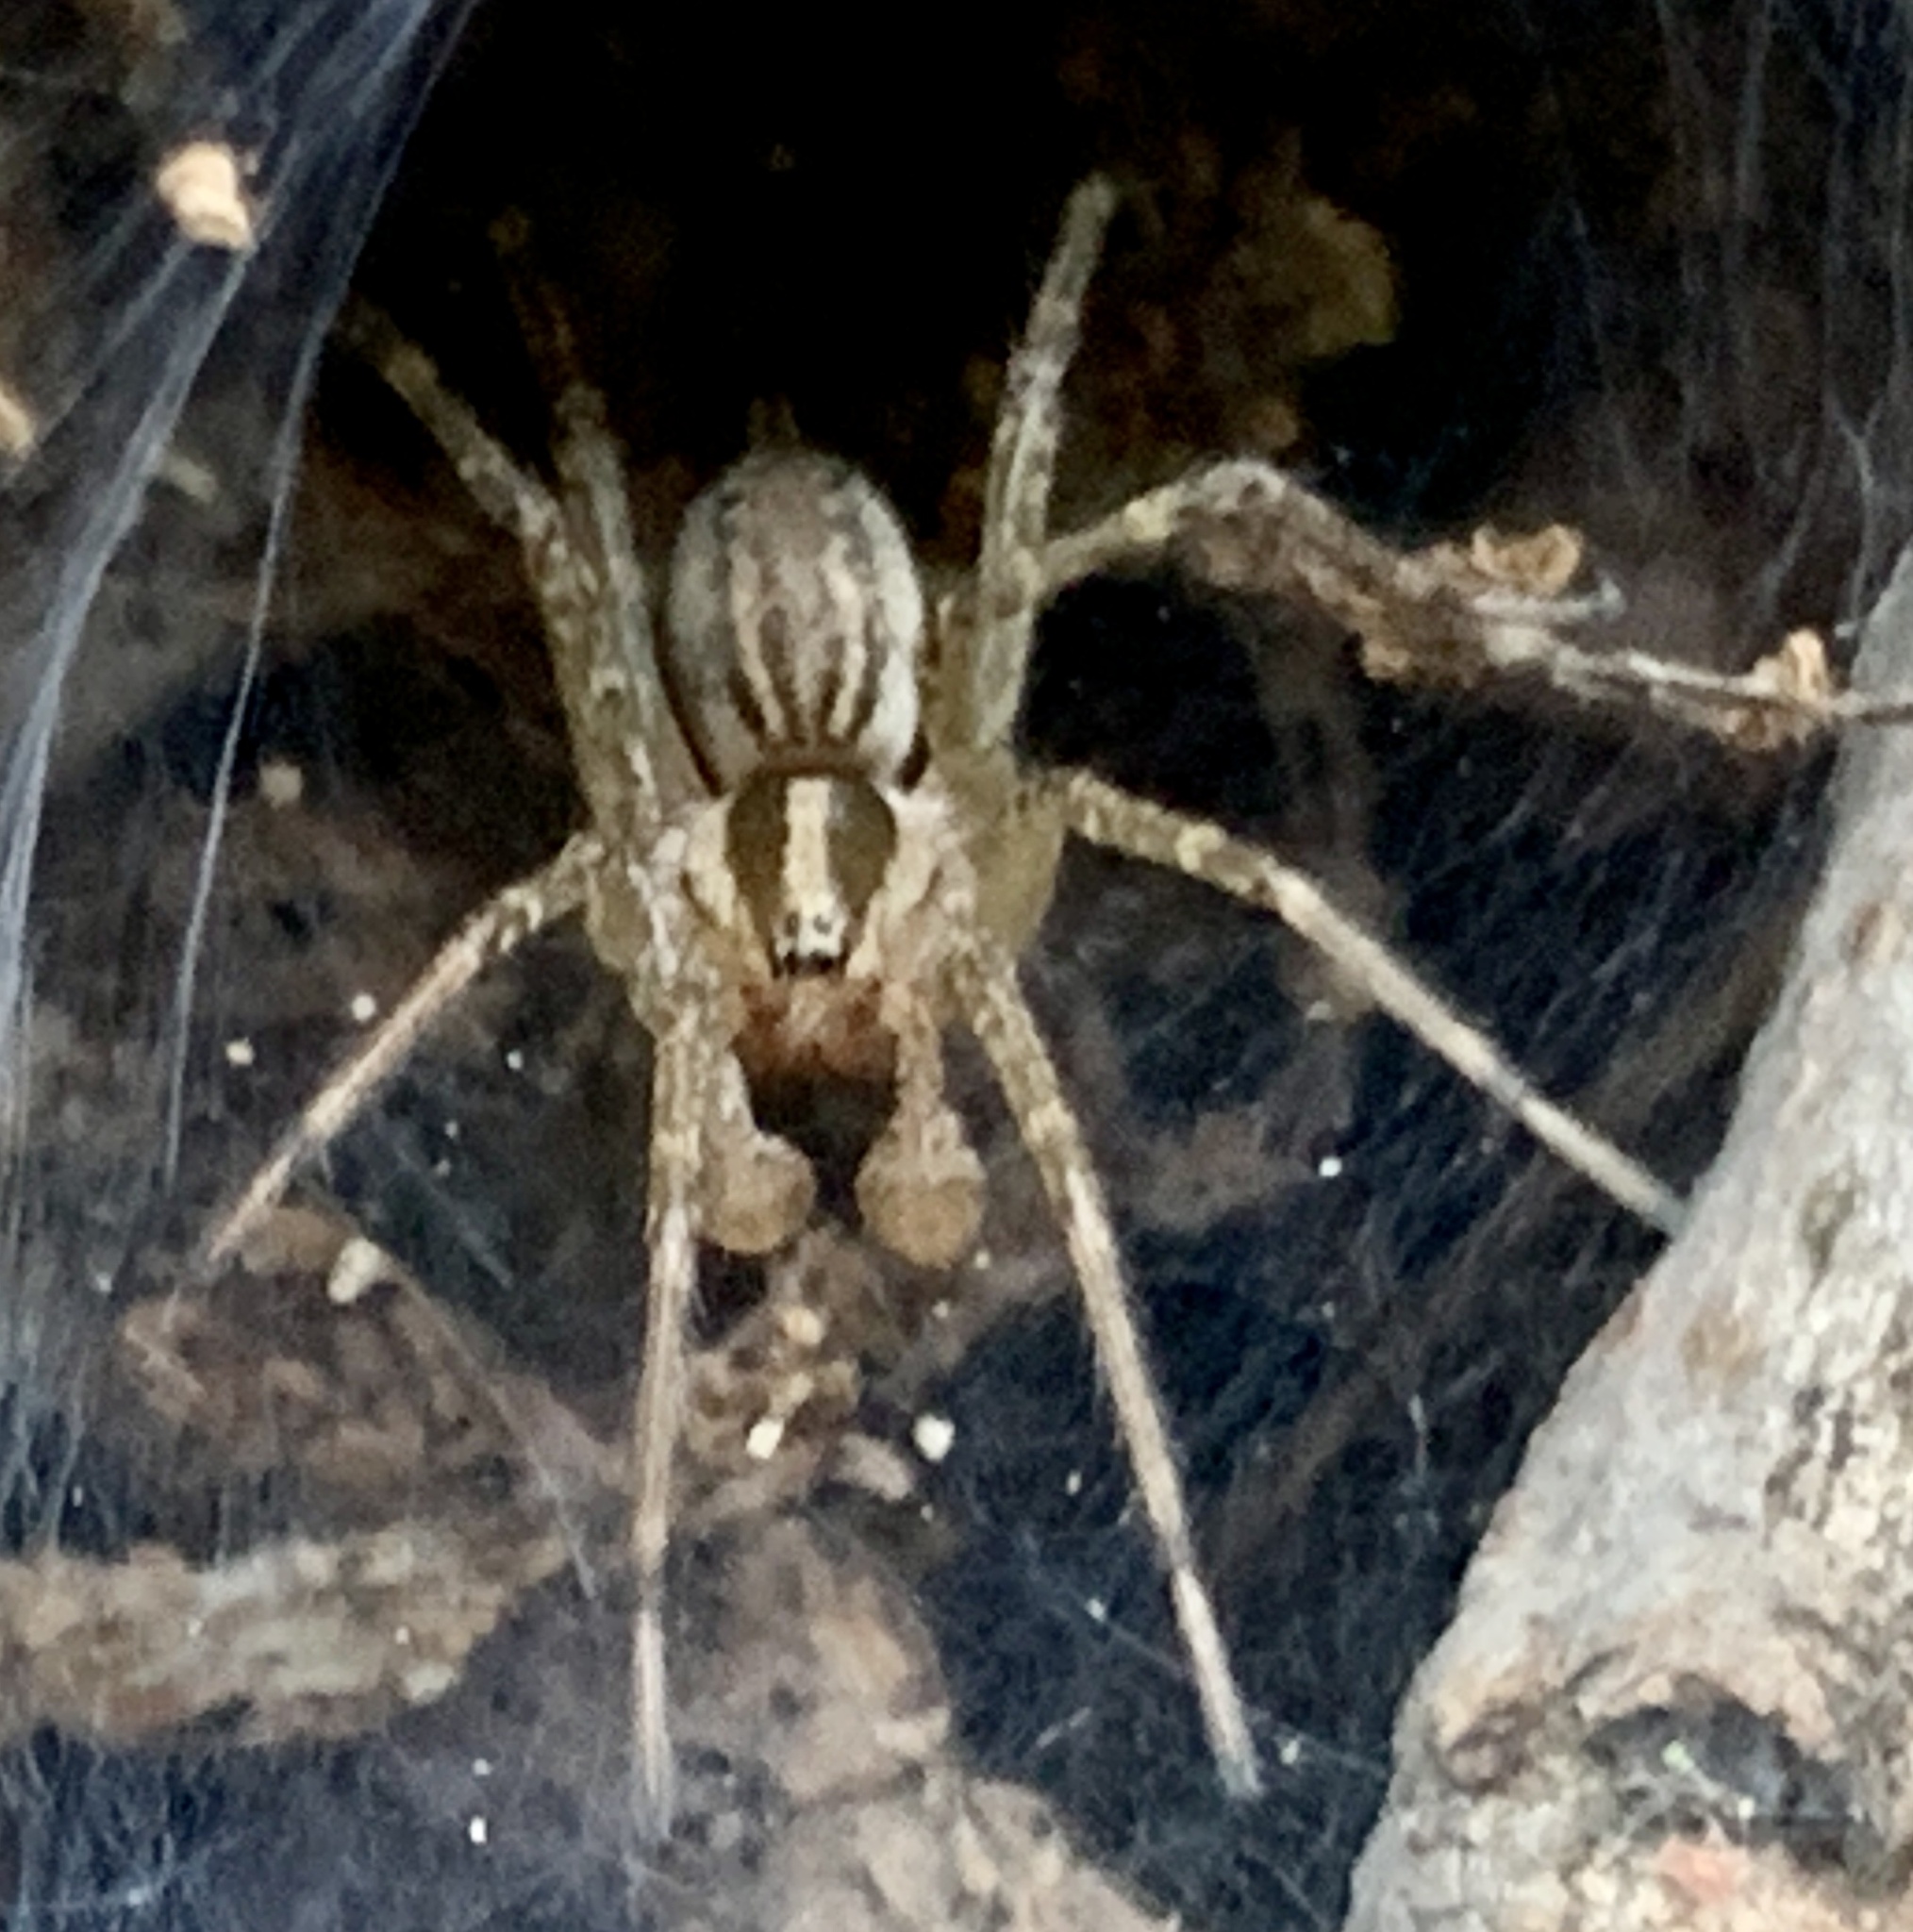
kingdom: Animalia
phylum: Arthropoda
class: Arachnida
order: Araneae
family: Agelenidae
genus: Agelenopsis
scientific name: Agelenopsis
